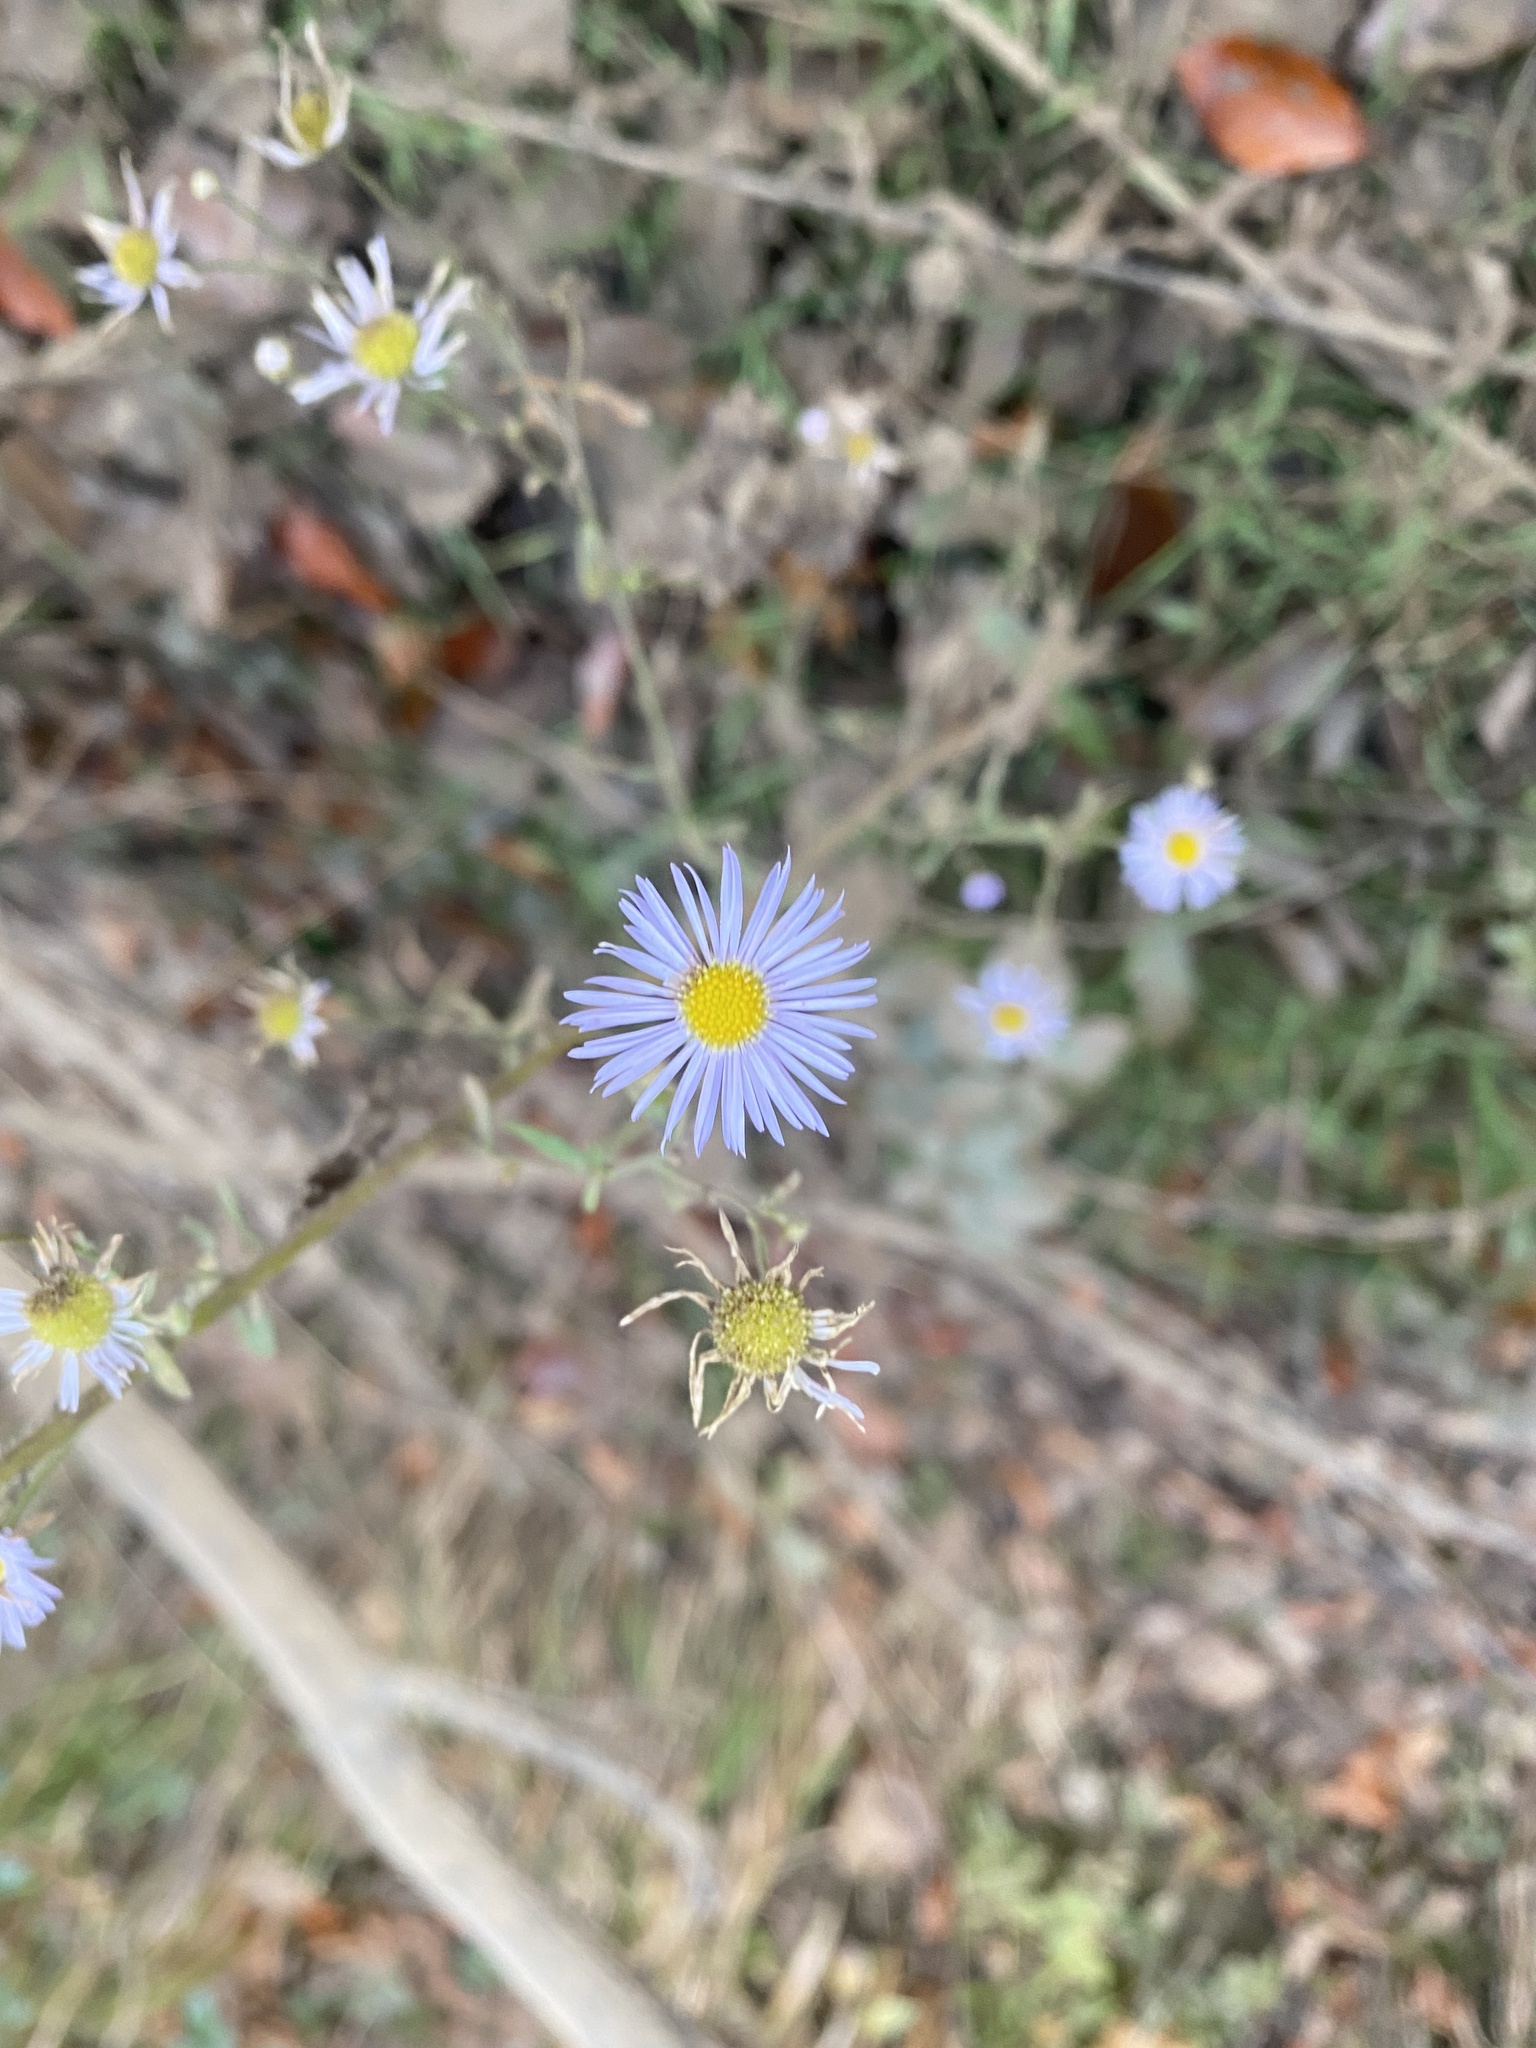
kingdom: Plantae
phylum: Tracheophyta
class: Magnoliopsida
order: Asterales
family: Asteraceae
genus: Erigeron
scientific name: Erigeron annuus
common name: Tall fleabane
